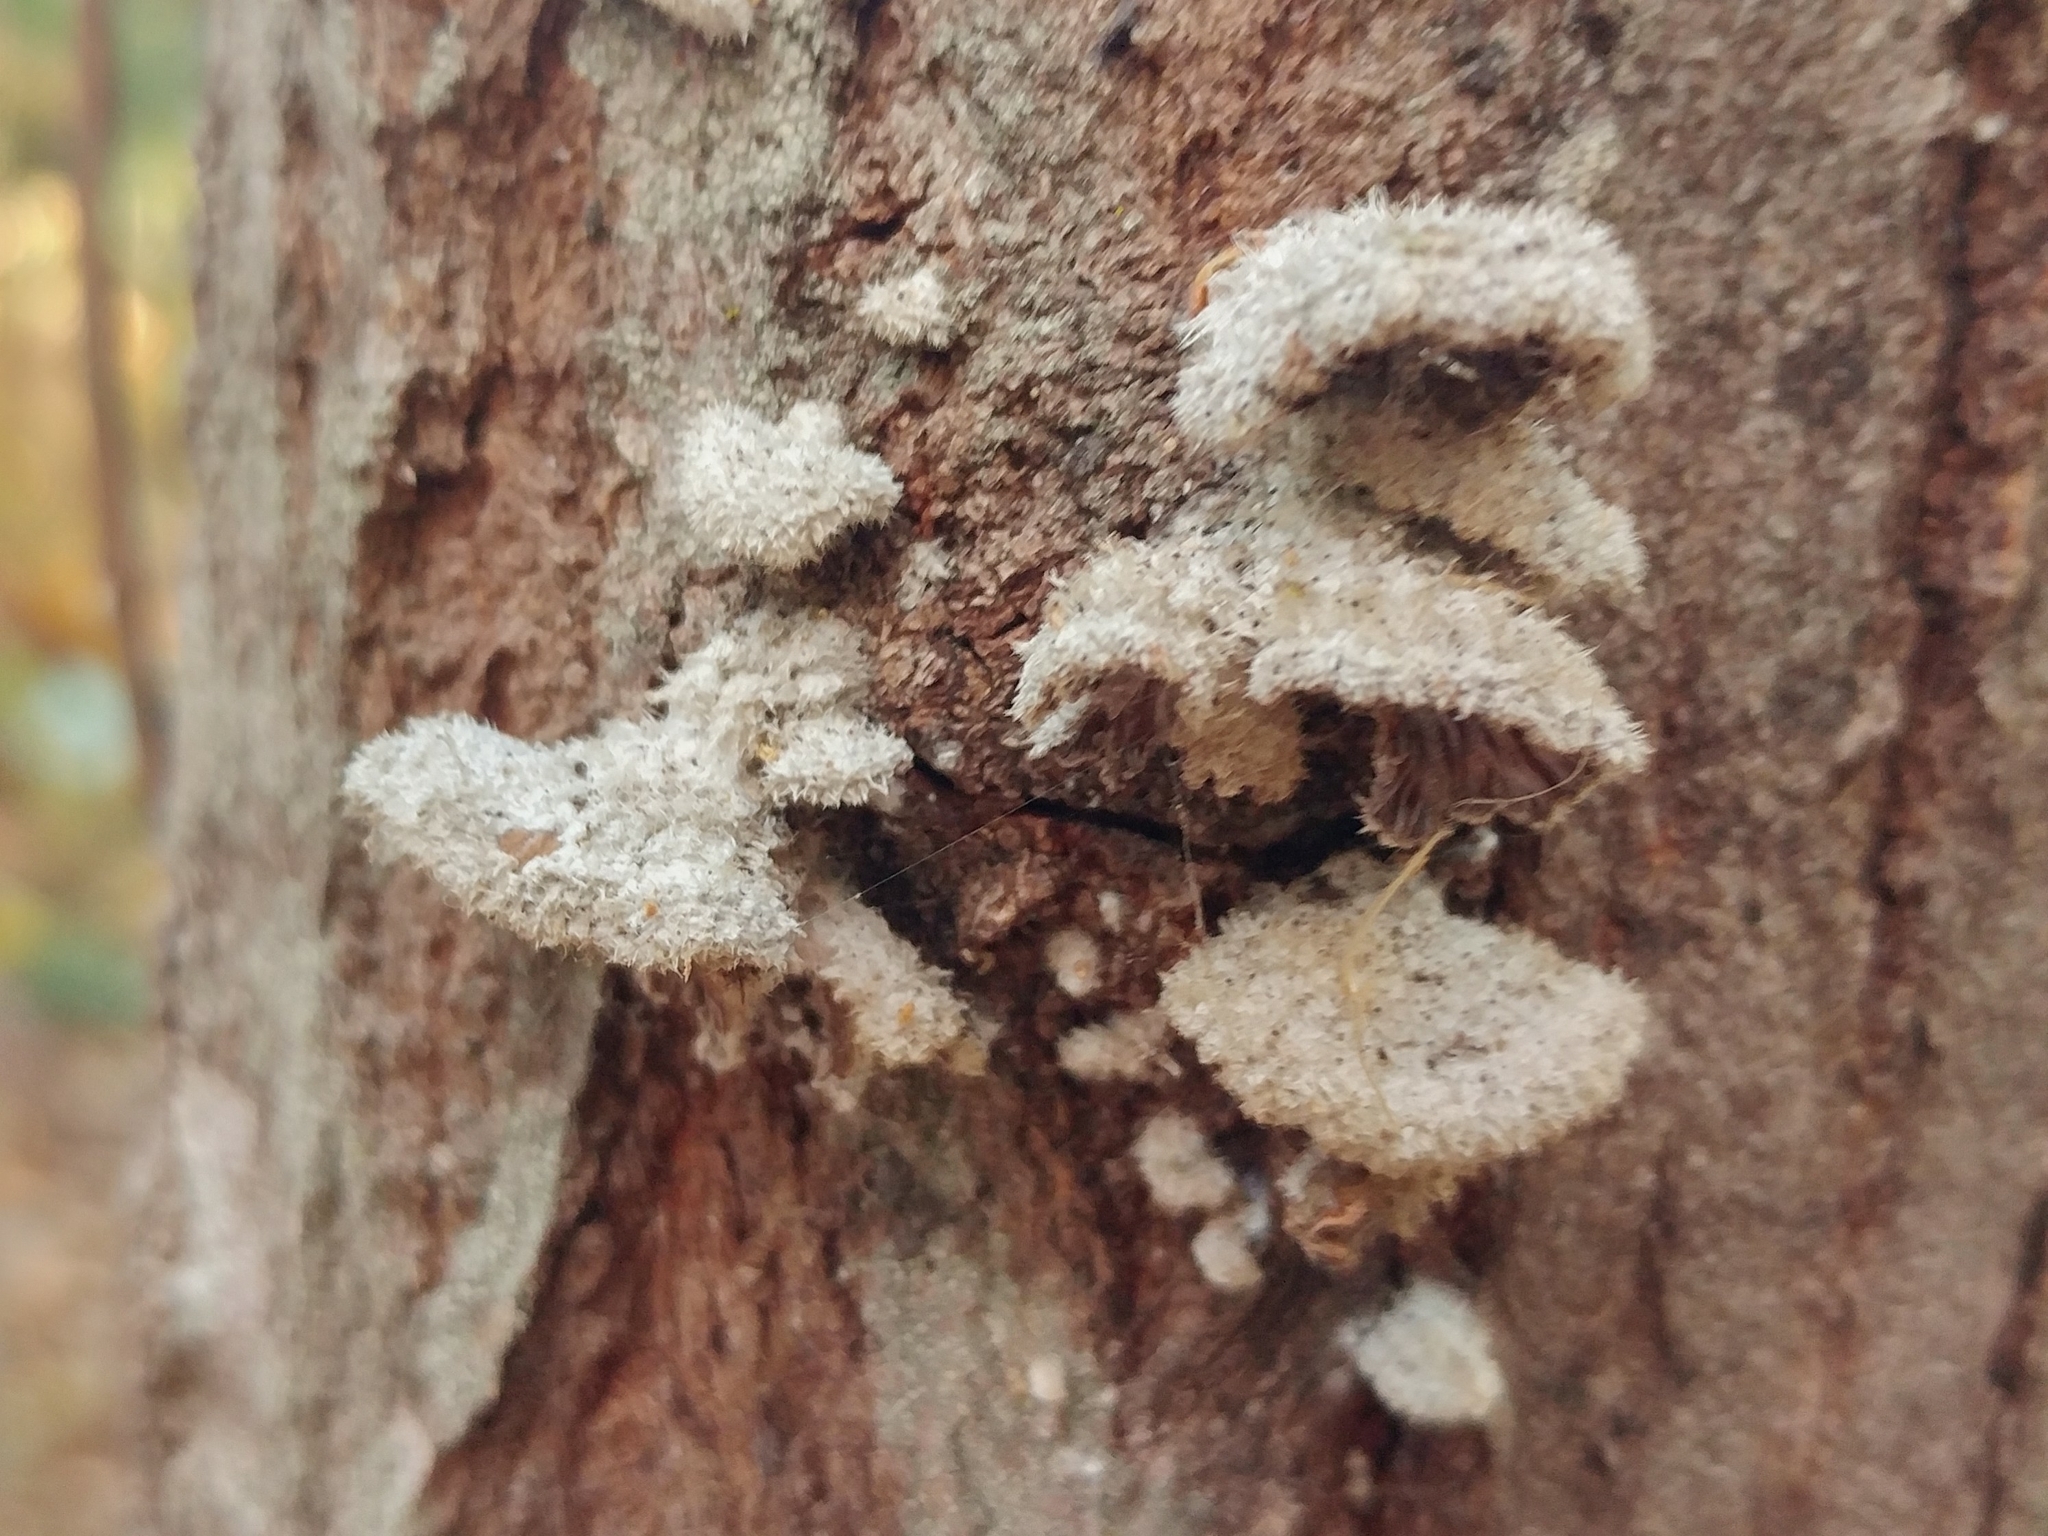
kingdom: Fungi
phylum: Basidiomycota
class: Agaricomycetes
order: Agaricales
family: Schizophyllaceae
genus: Schizophyllum
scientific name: Schizophyllum commune
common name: Common porecrust
